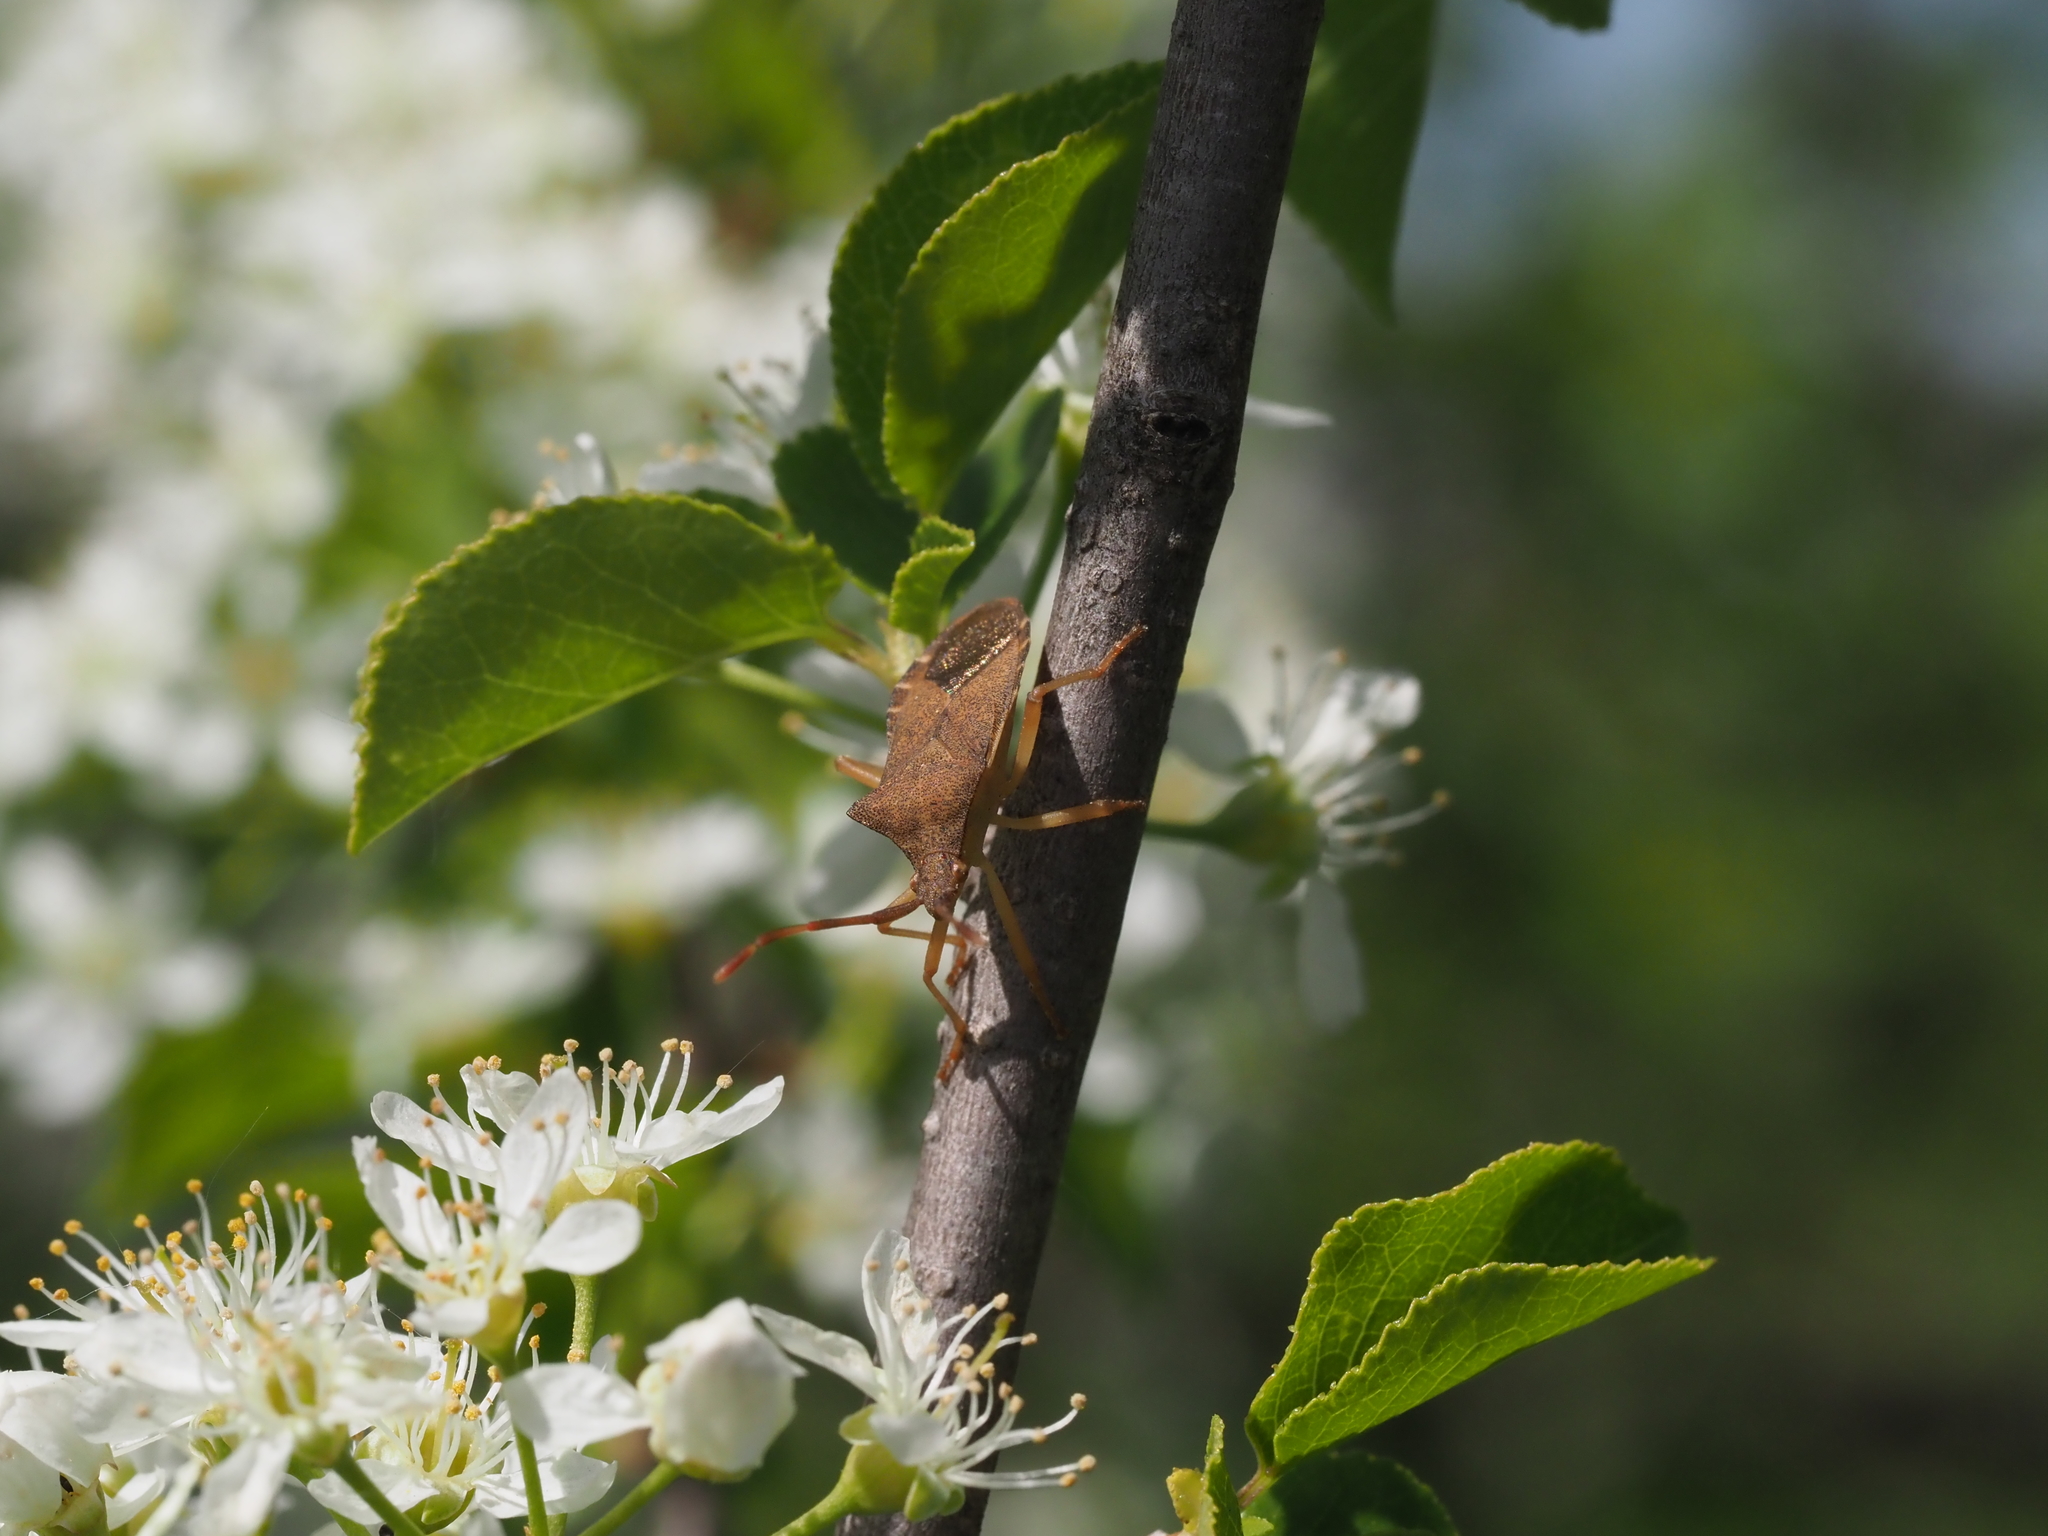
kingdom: Animalia
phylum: Arthropoda
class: Insecta
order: Hemiptera
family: Coreidae
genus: Gonocerus
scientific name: Gonocerus acuteangulatus
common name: Box bug
